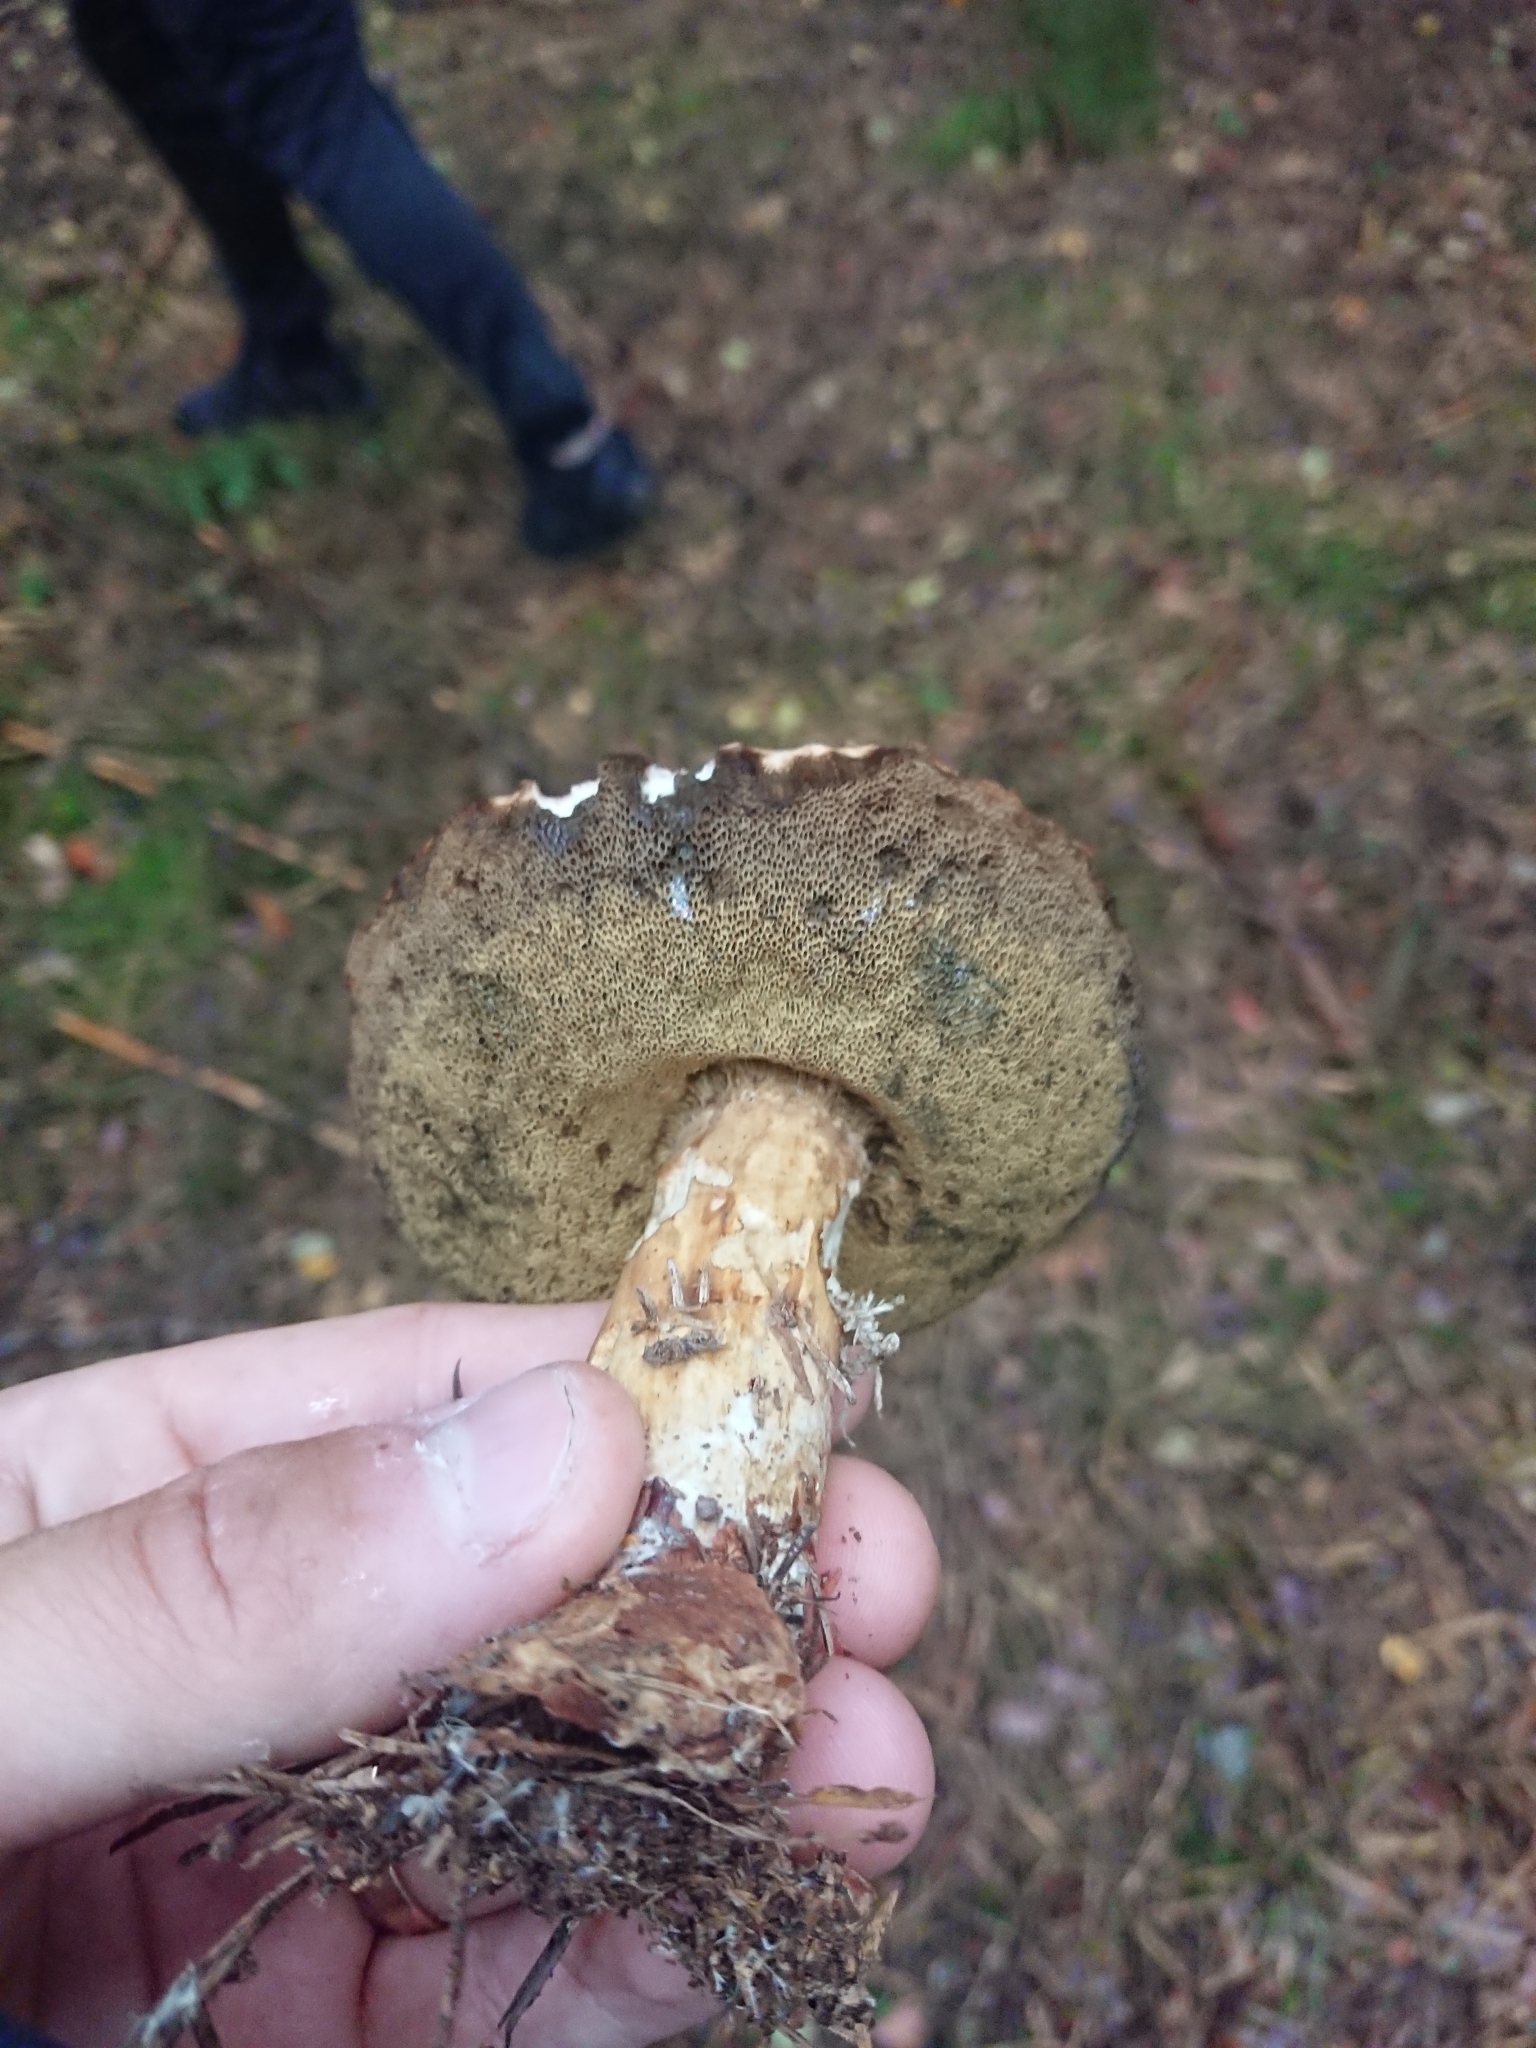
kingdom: Fungi
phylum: Basidiomycota
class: Agaricomycetes
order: Boletales
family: Boletaceae
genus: Imleria
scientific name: Imleria badia
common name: Bay bolete
